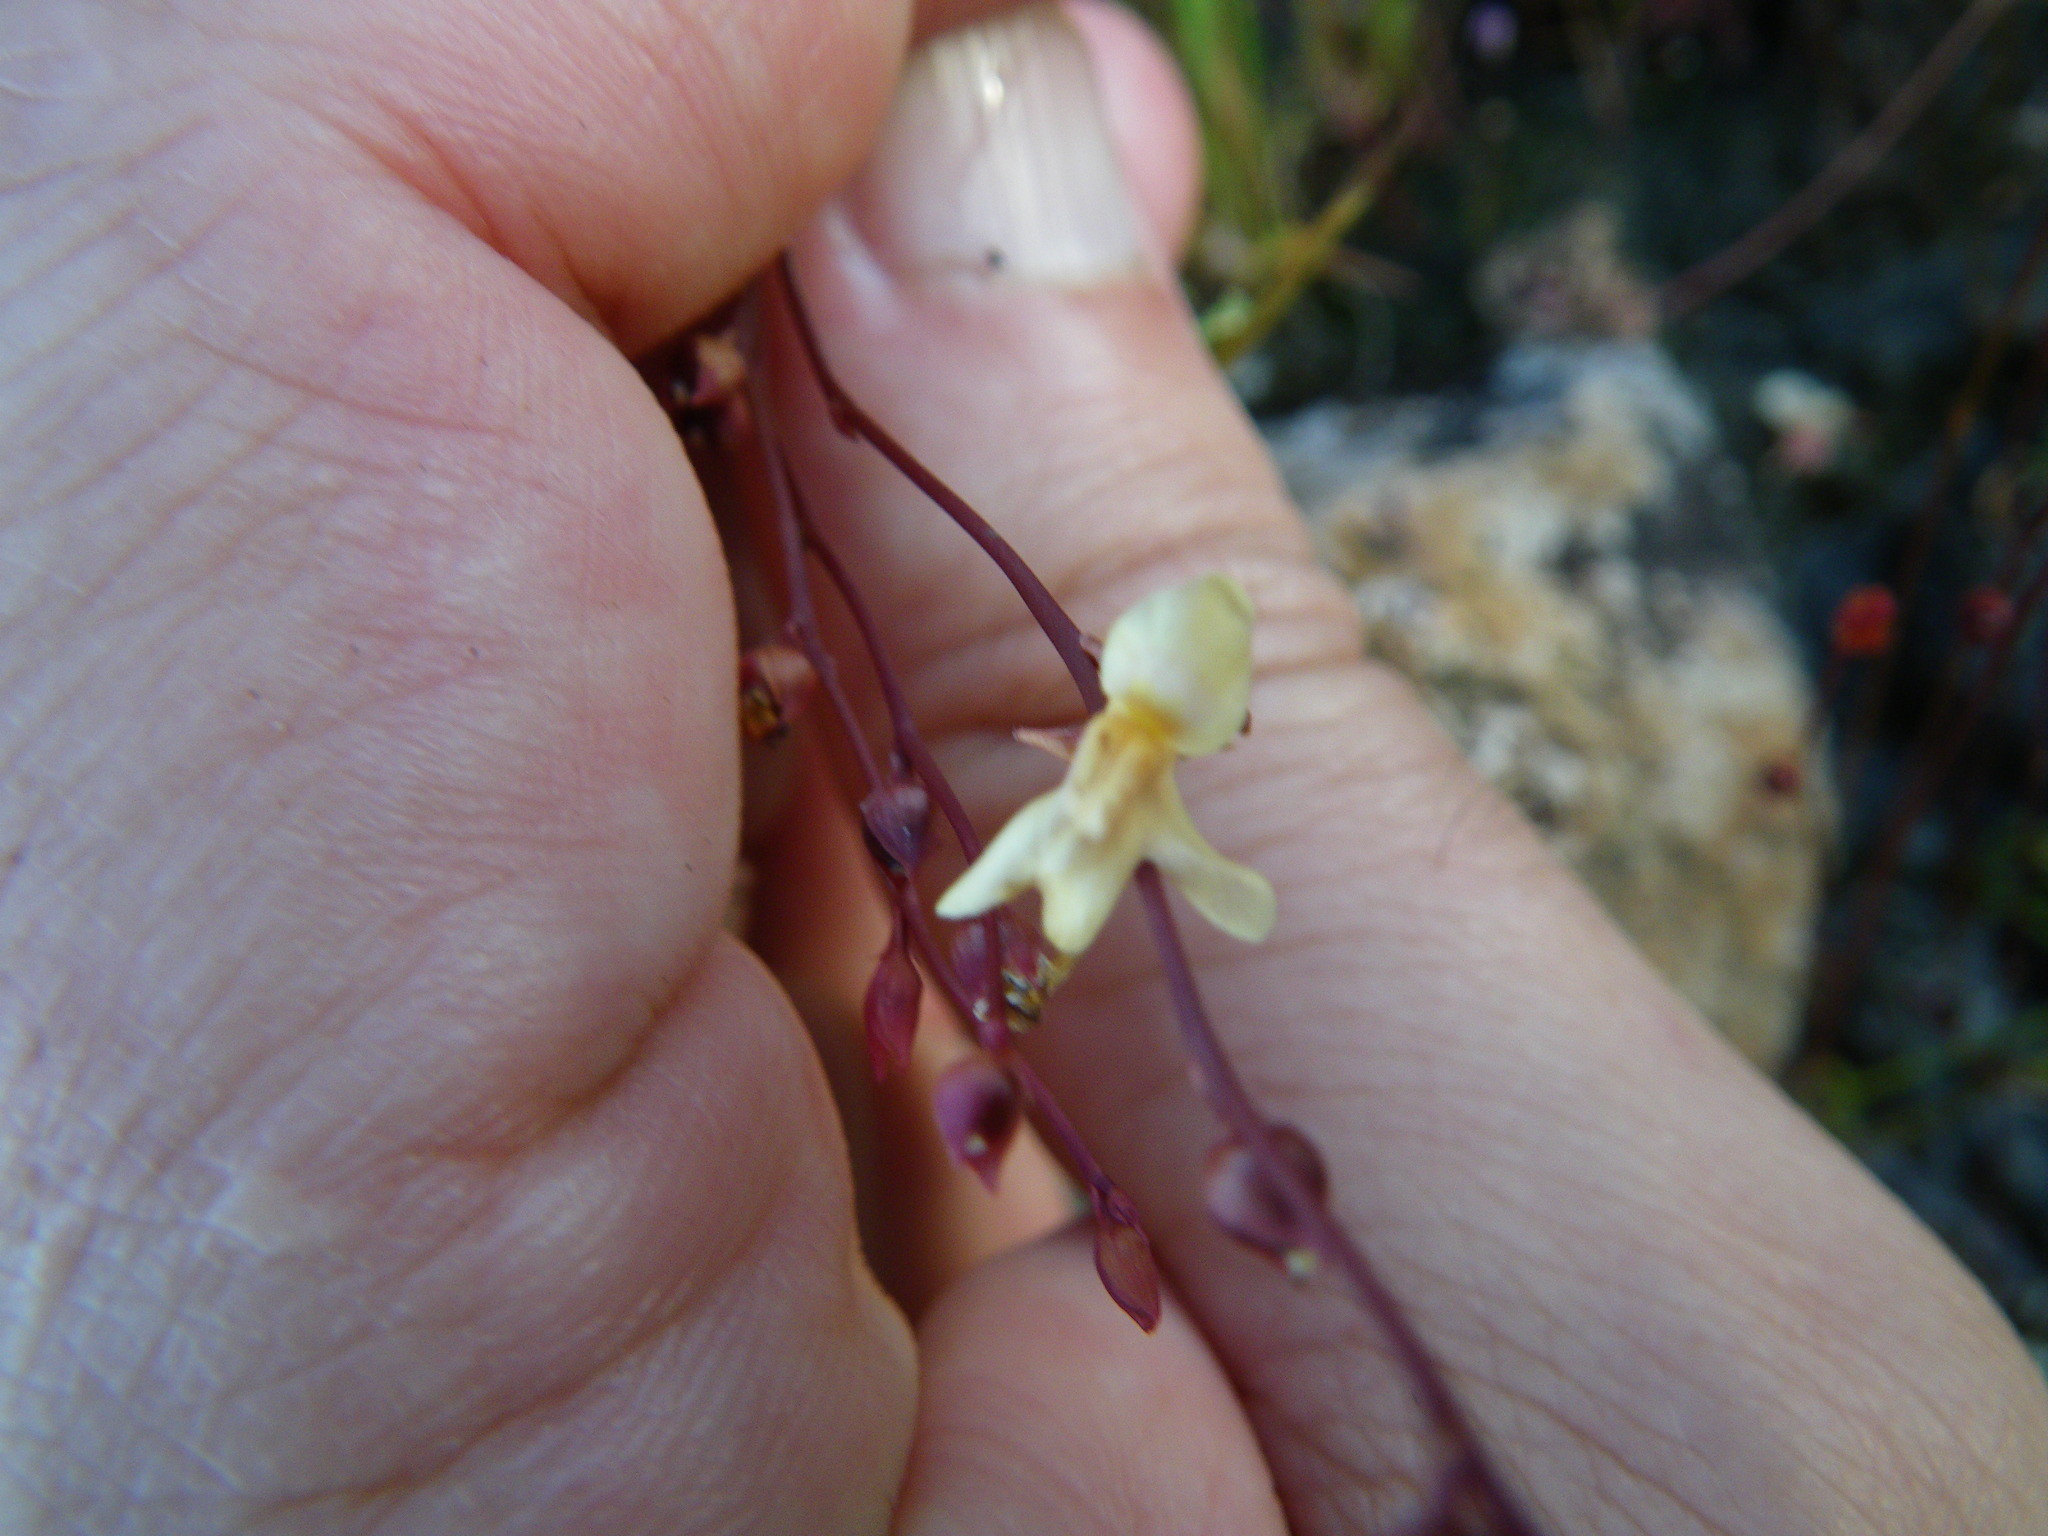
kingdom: Plantae
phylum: Tracheophyta
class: Magnoliopsida
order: Lamiales
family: Lentibulariaceae
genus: Utricularia
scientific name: Utricularia chrysantha
